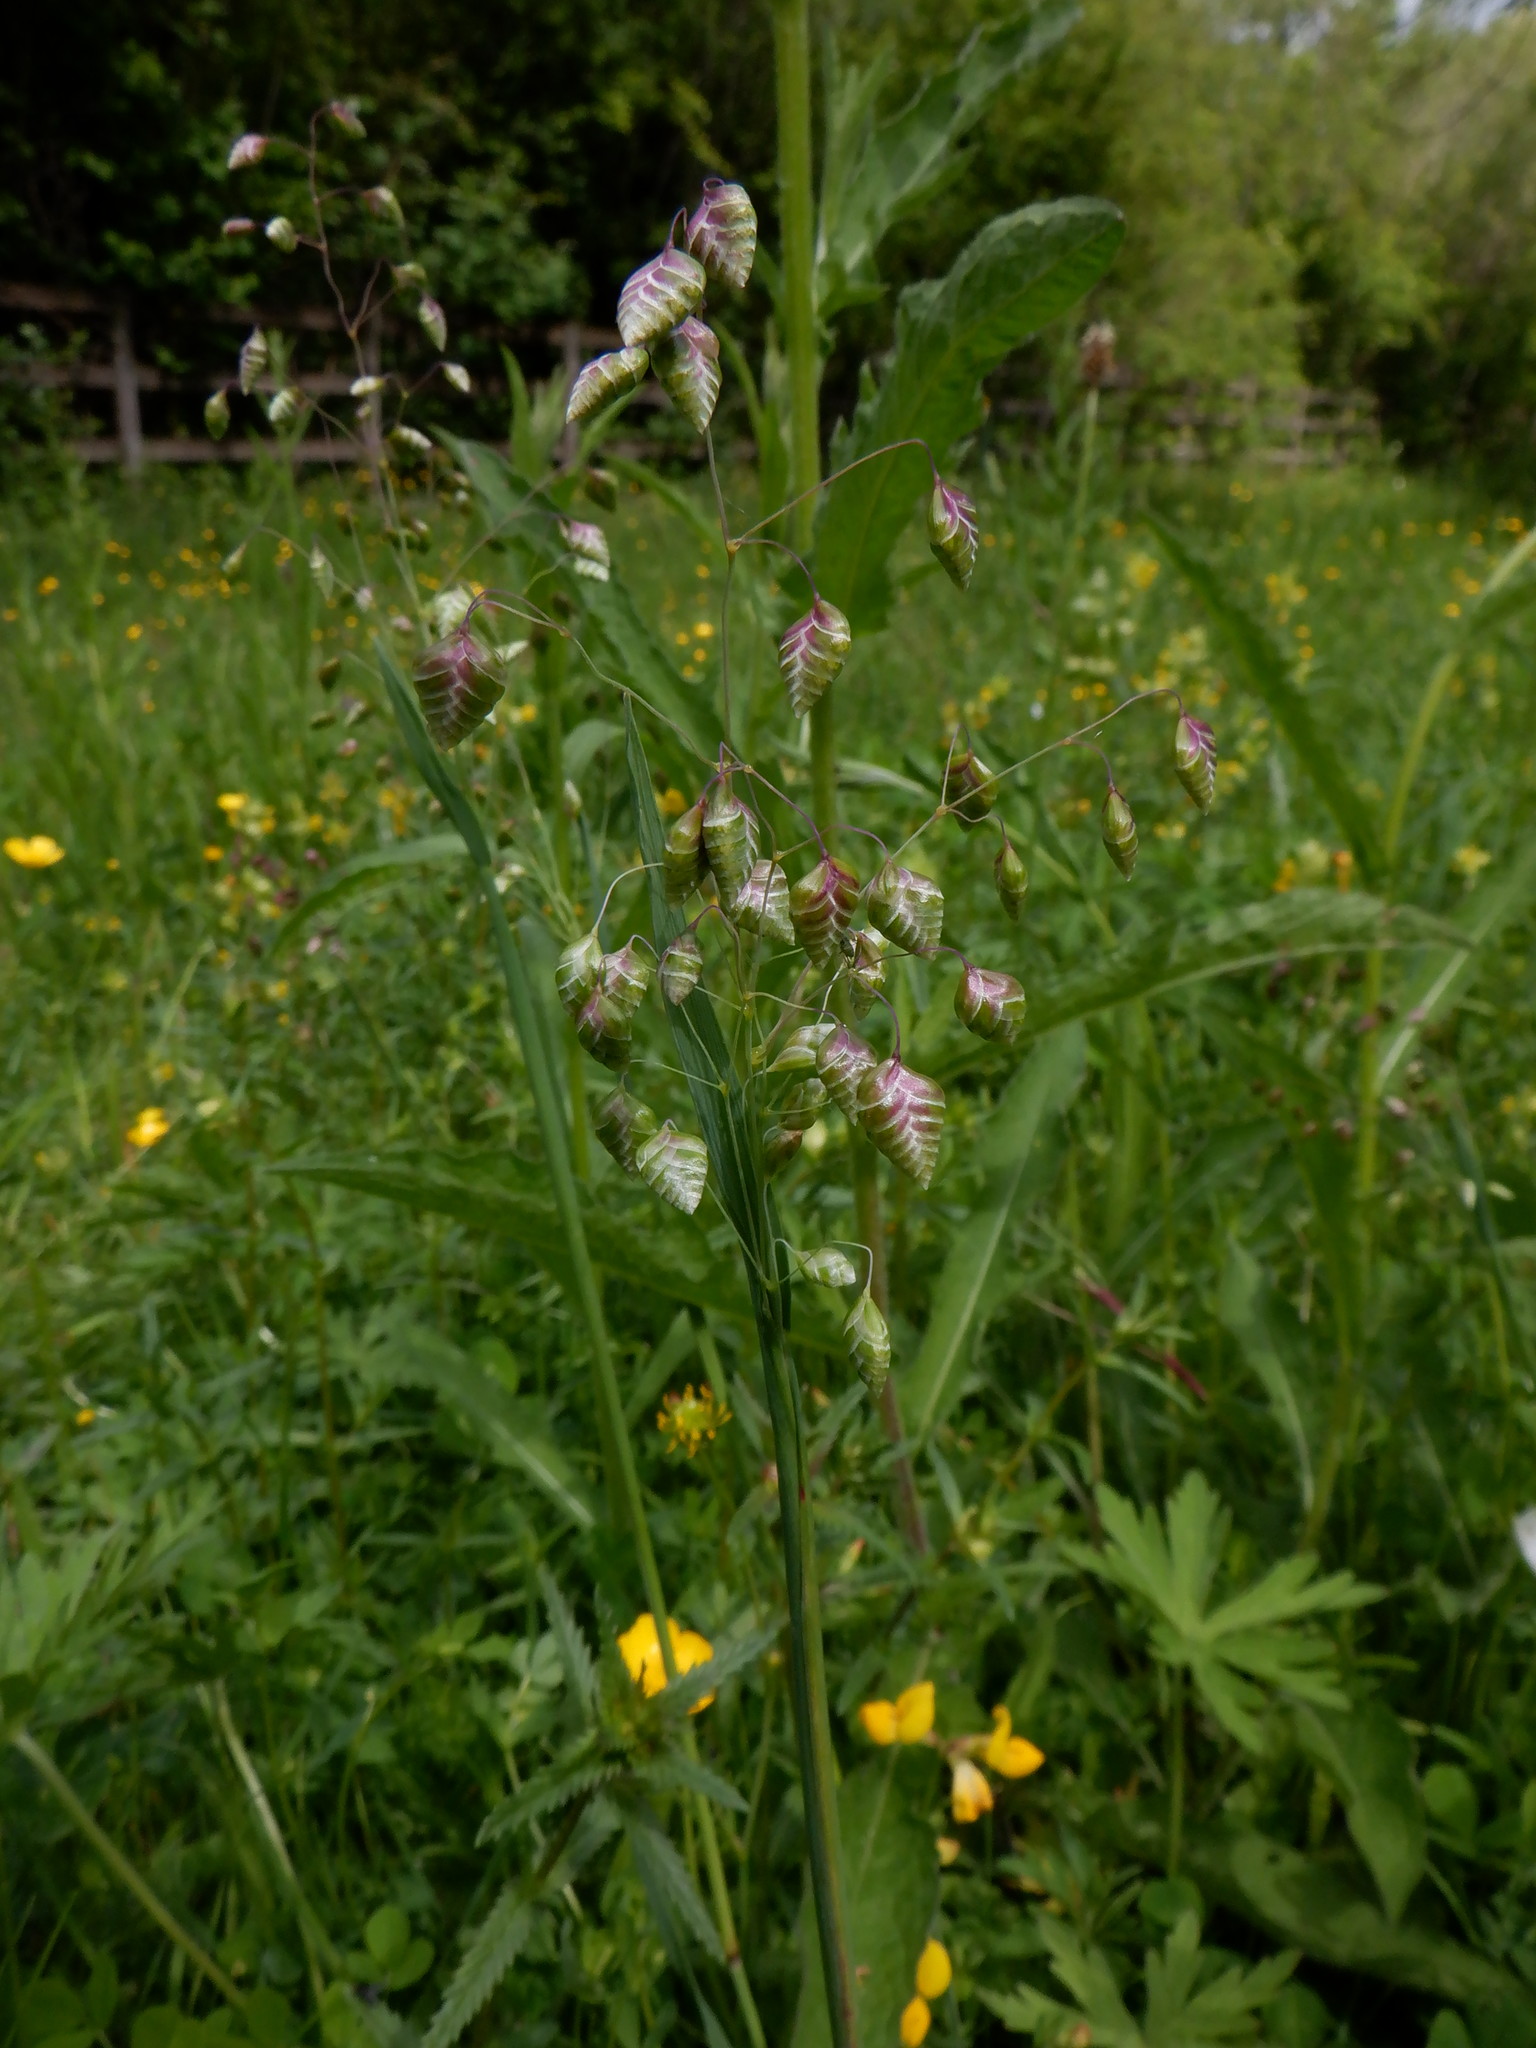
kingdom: Plantae
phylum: Tracheophyta
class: Liliopsida
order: Poales
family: Poaceae
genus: Briza
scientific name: Briza media
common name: Quaking grass
